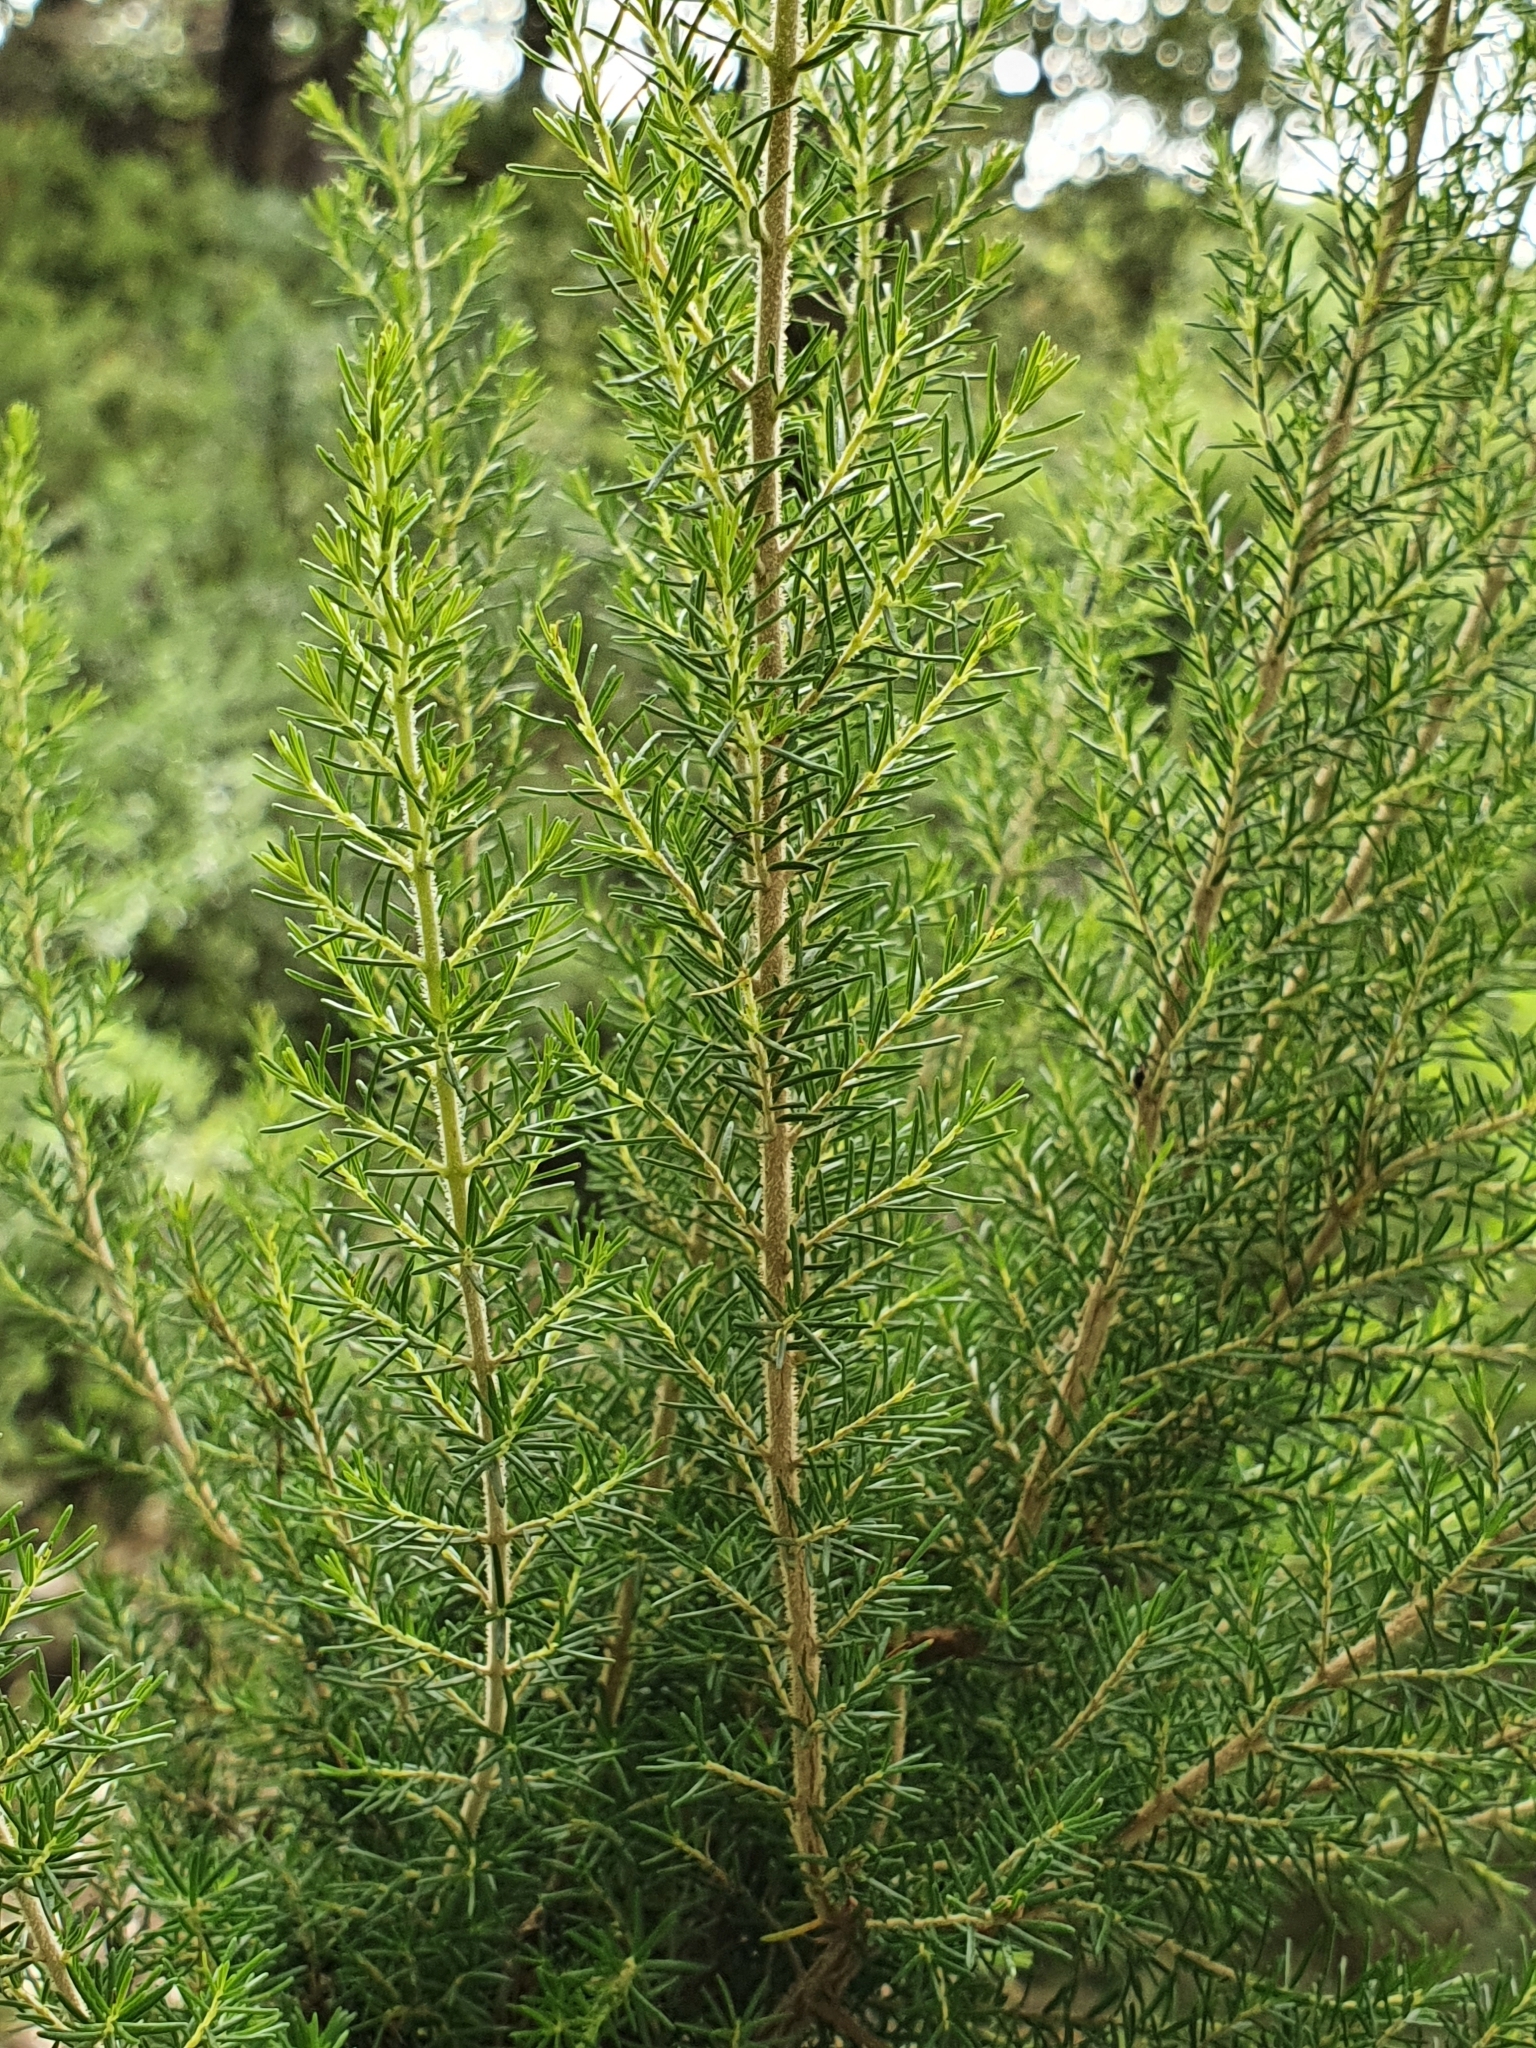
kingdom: Plantae
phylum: Tracheophyta
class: Magnoliopsida
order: Ericales
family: Ericaceae
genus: Erica
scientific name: Erica arborea
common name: Tree heath
